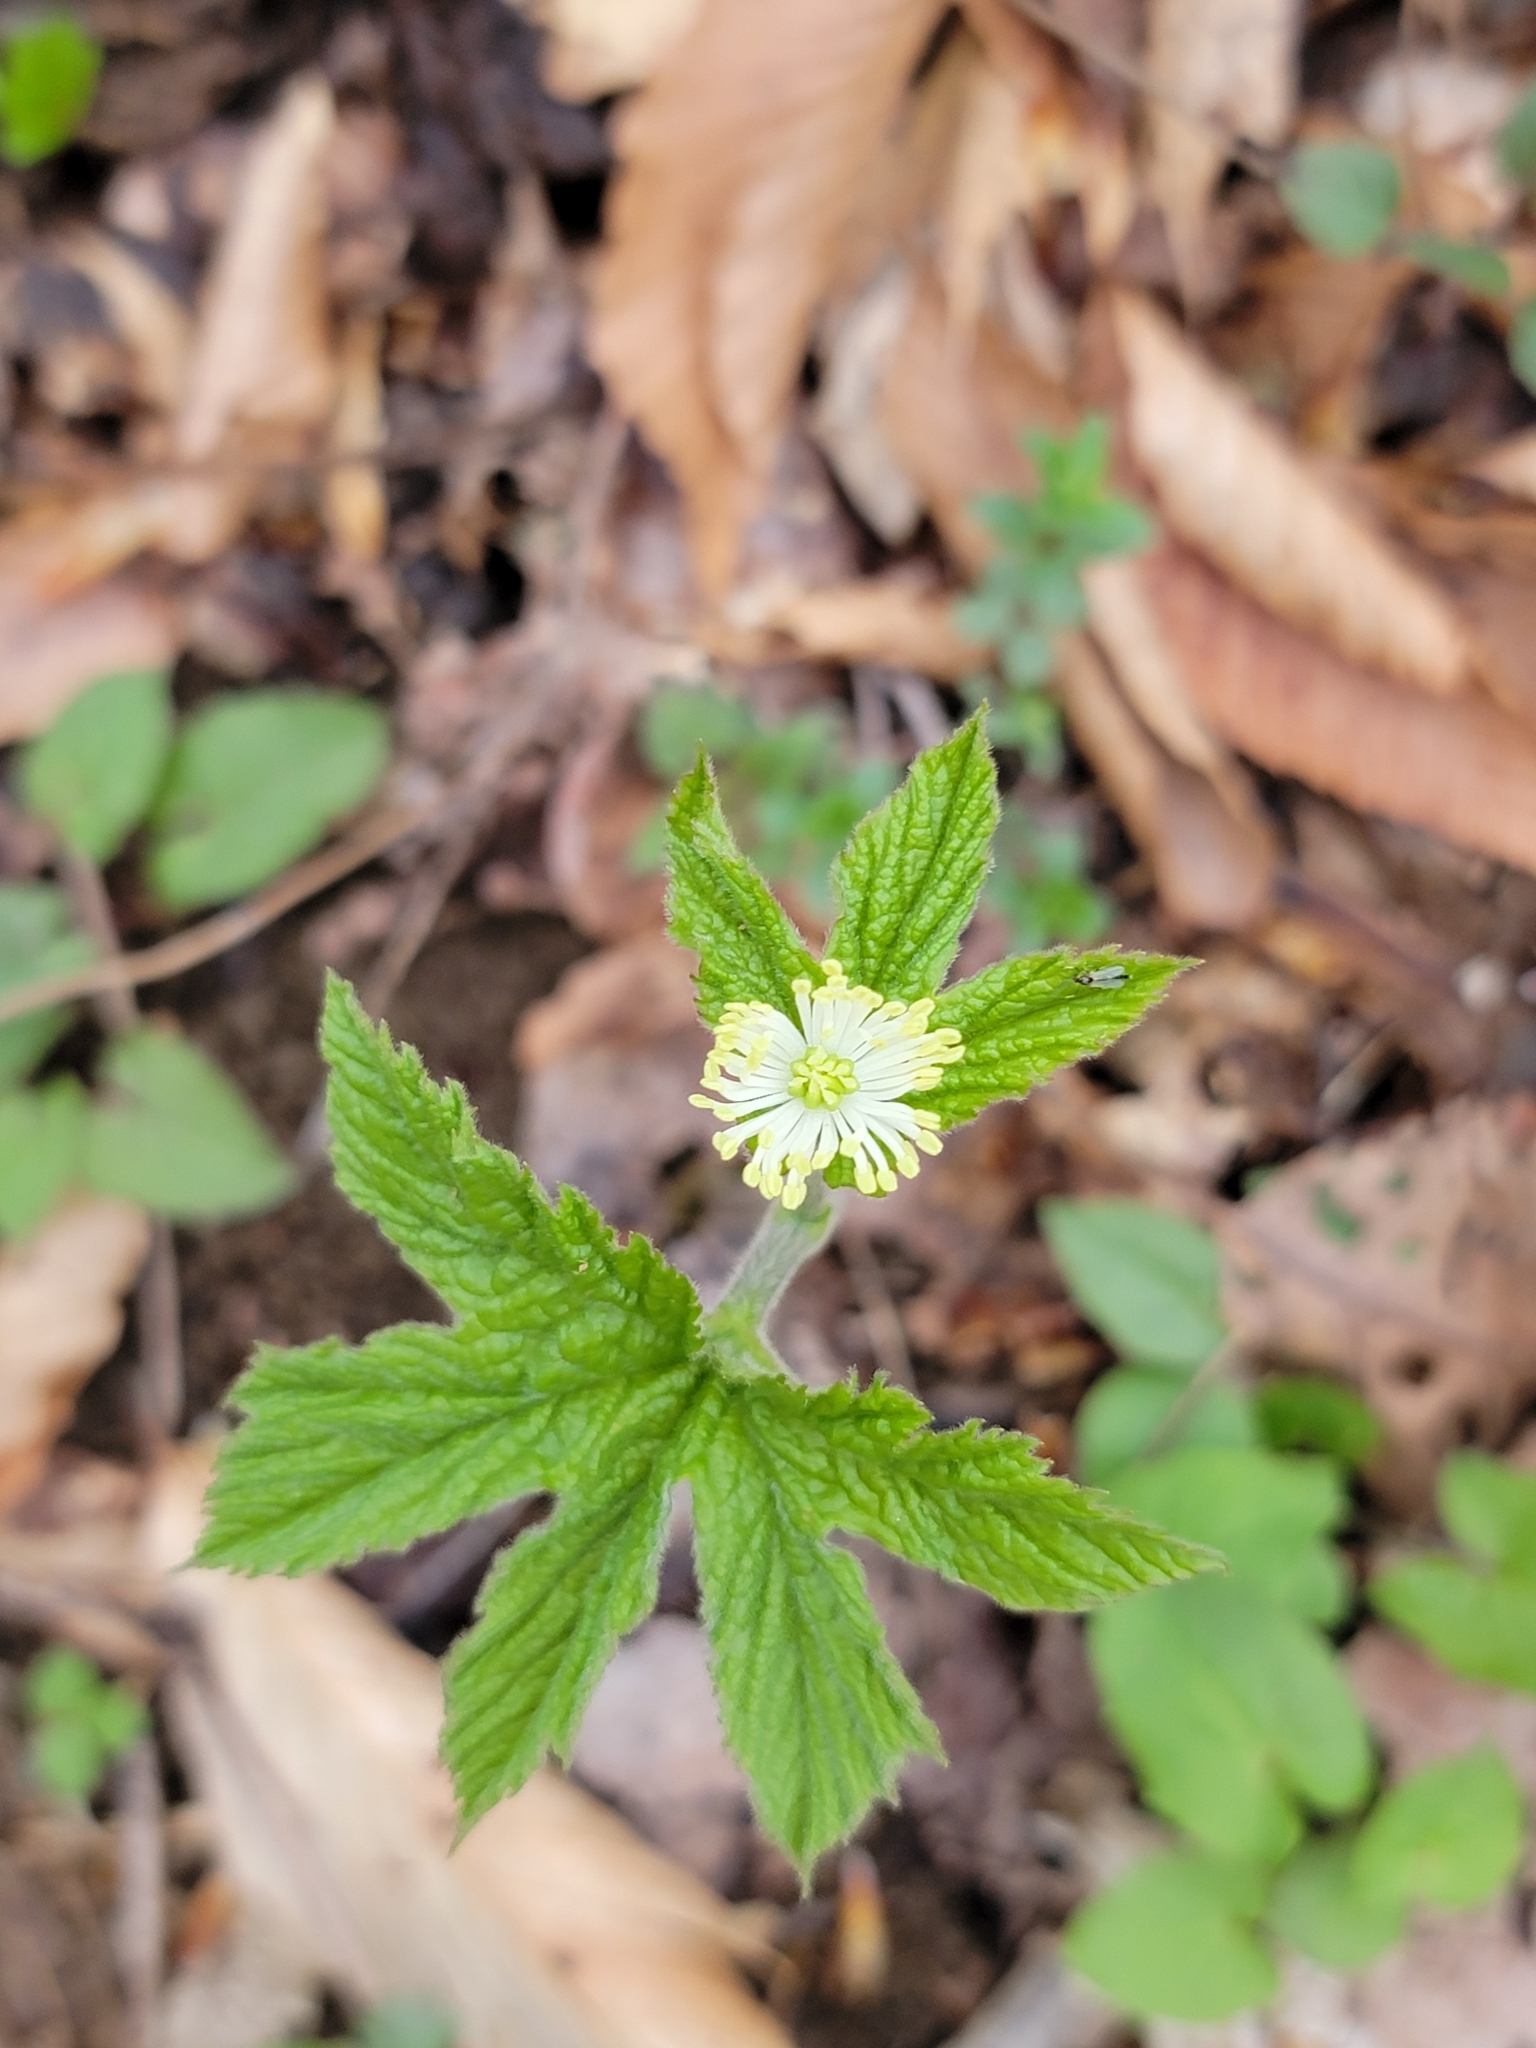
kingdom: Plantae
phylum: Tracheophyta
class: Magnoliopsida
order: Ranunculales
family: Ranunculaceae
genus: Hydrastis
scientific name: Hydrastis canadensis
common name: Goldenseal
